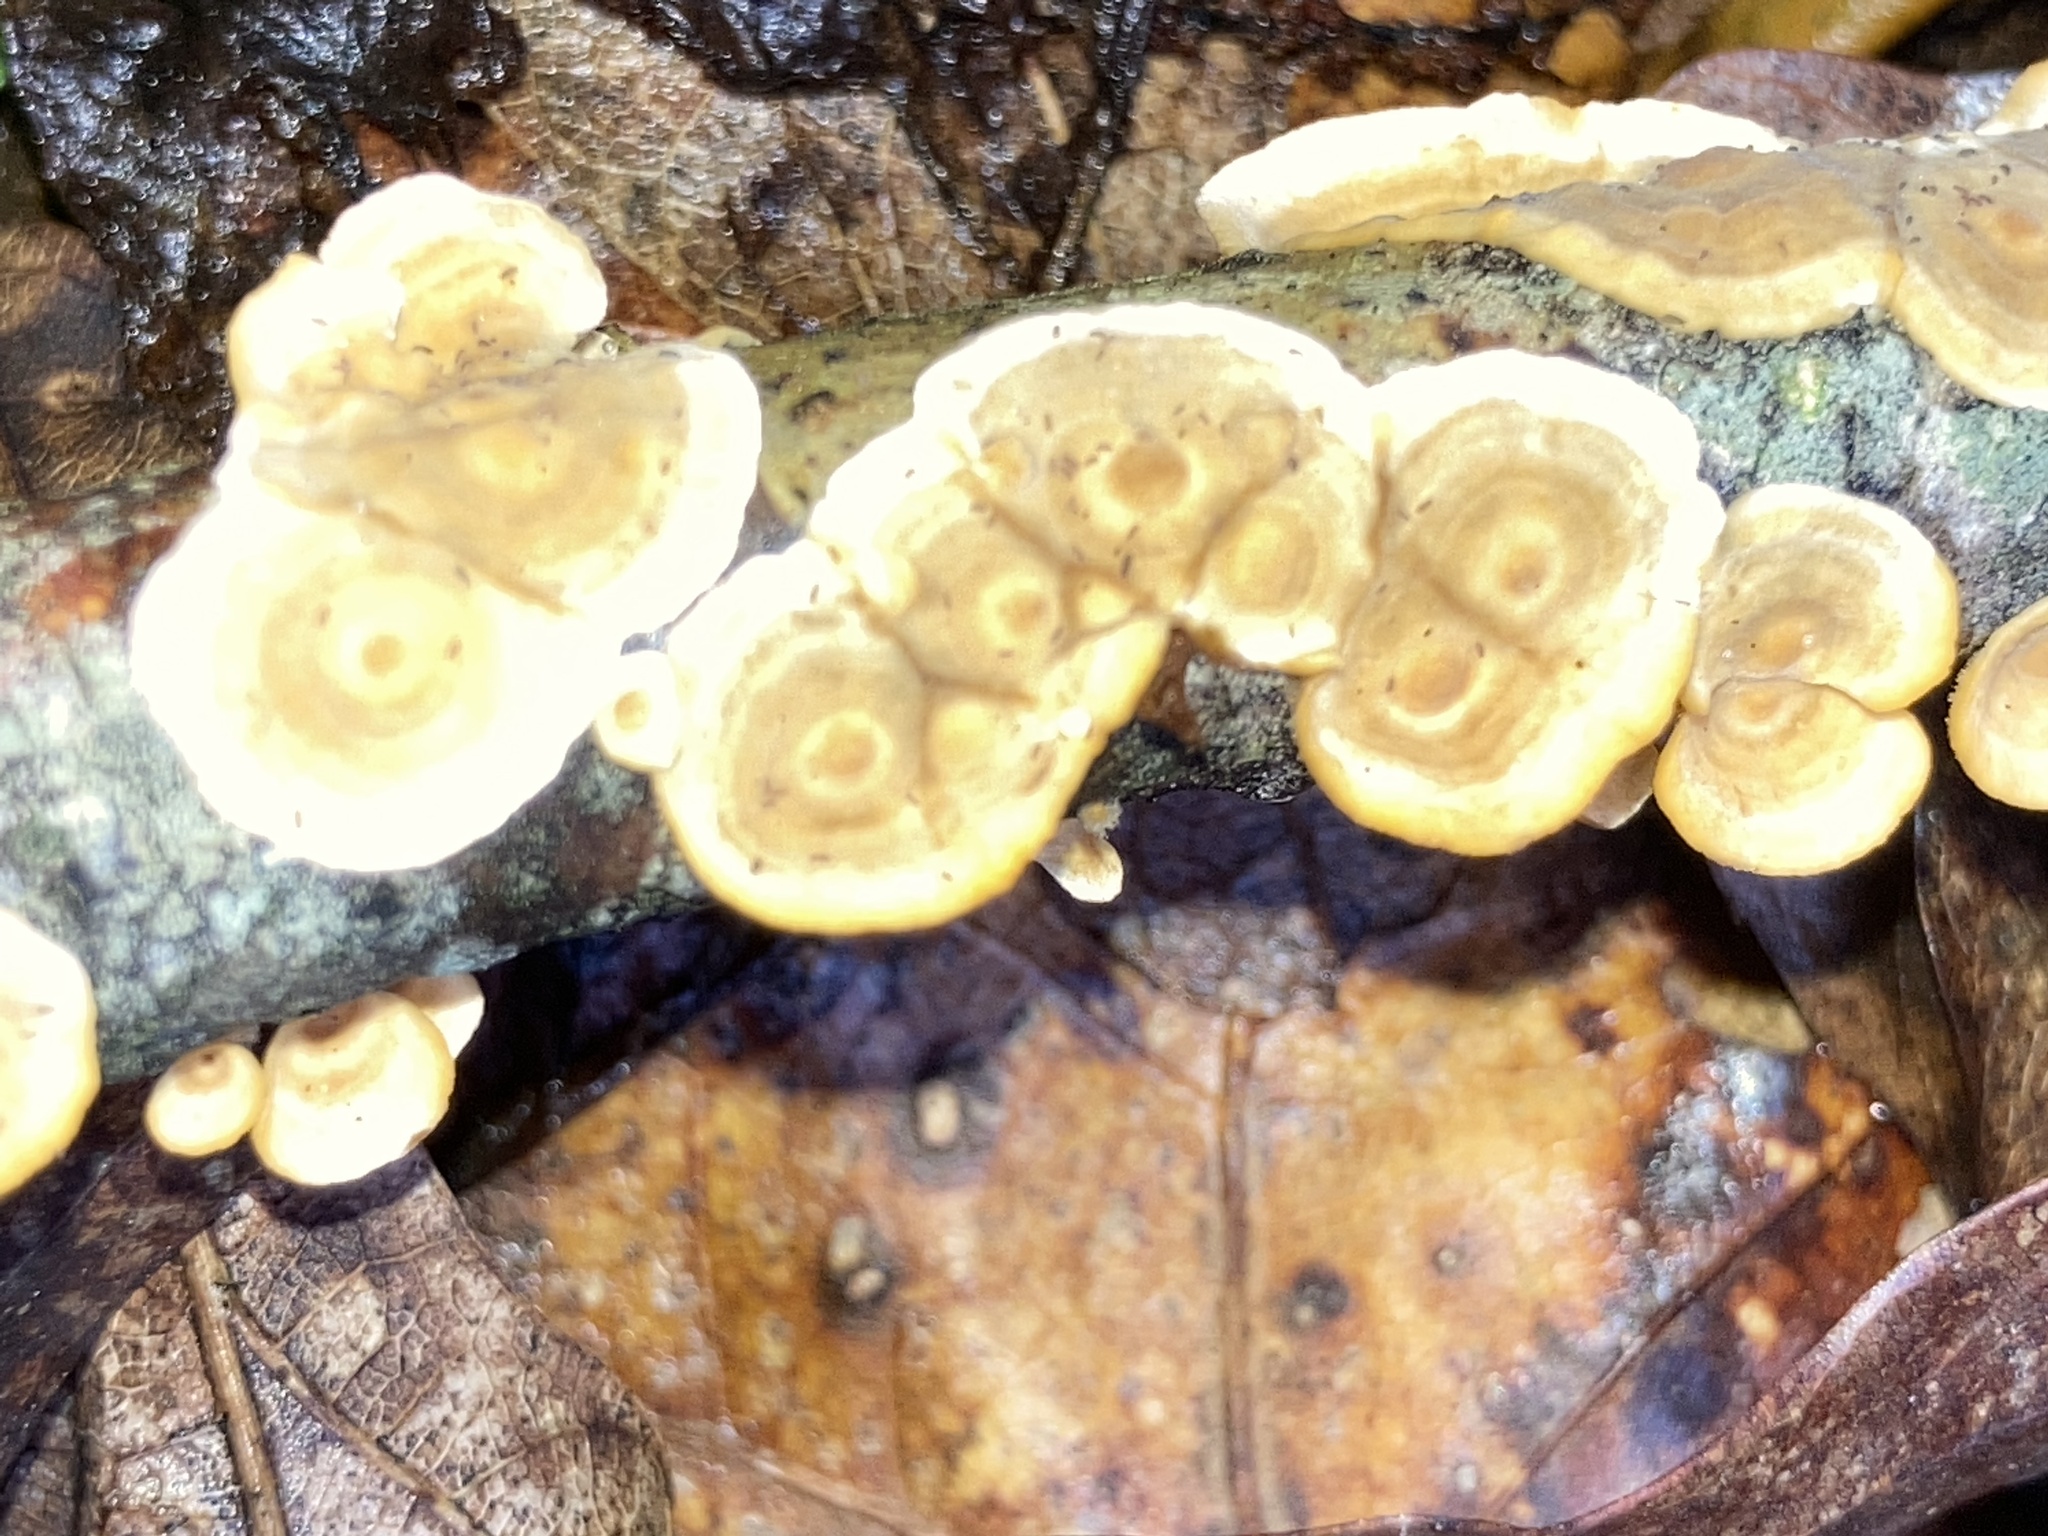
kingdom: Fungi
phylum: Basidiomycota
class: Agaricomycetes
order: Russulales
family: Stereaceae
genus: Stereum
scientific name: Stereum complicatum
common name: Crowded parchment
